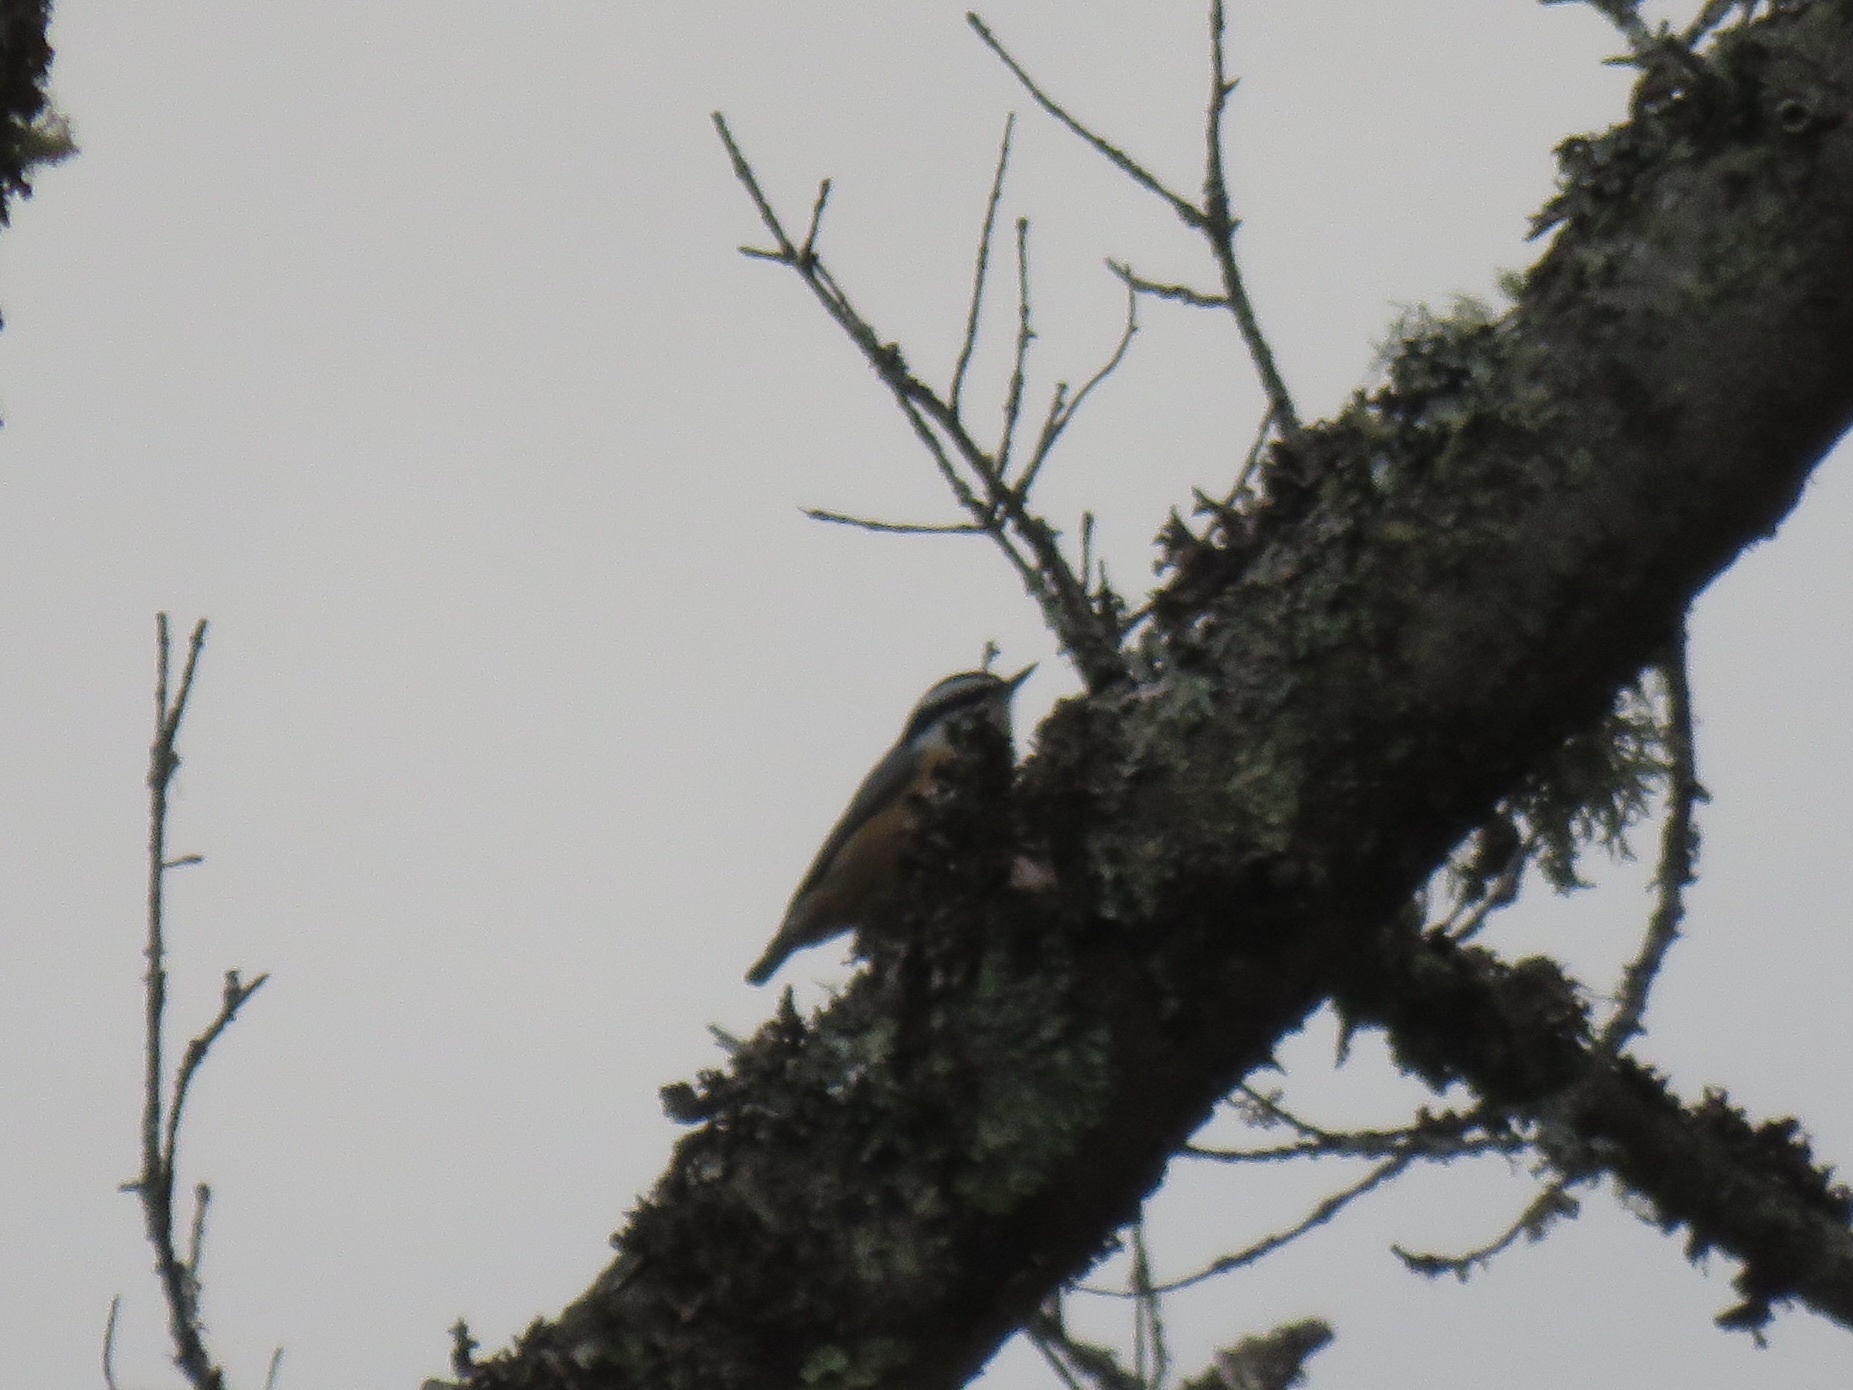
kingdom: Animalia
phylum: Chordata
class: Aves
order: Passeriformes
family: Sittidae
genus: Sitta
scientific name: Sitta canadensis
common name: Red-breasted nuthatch
